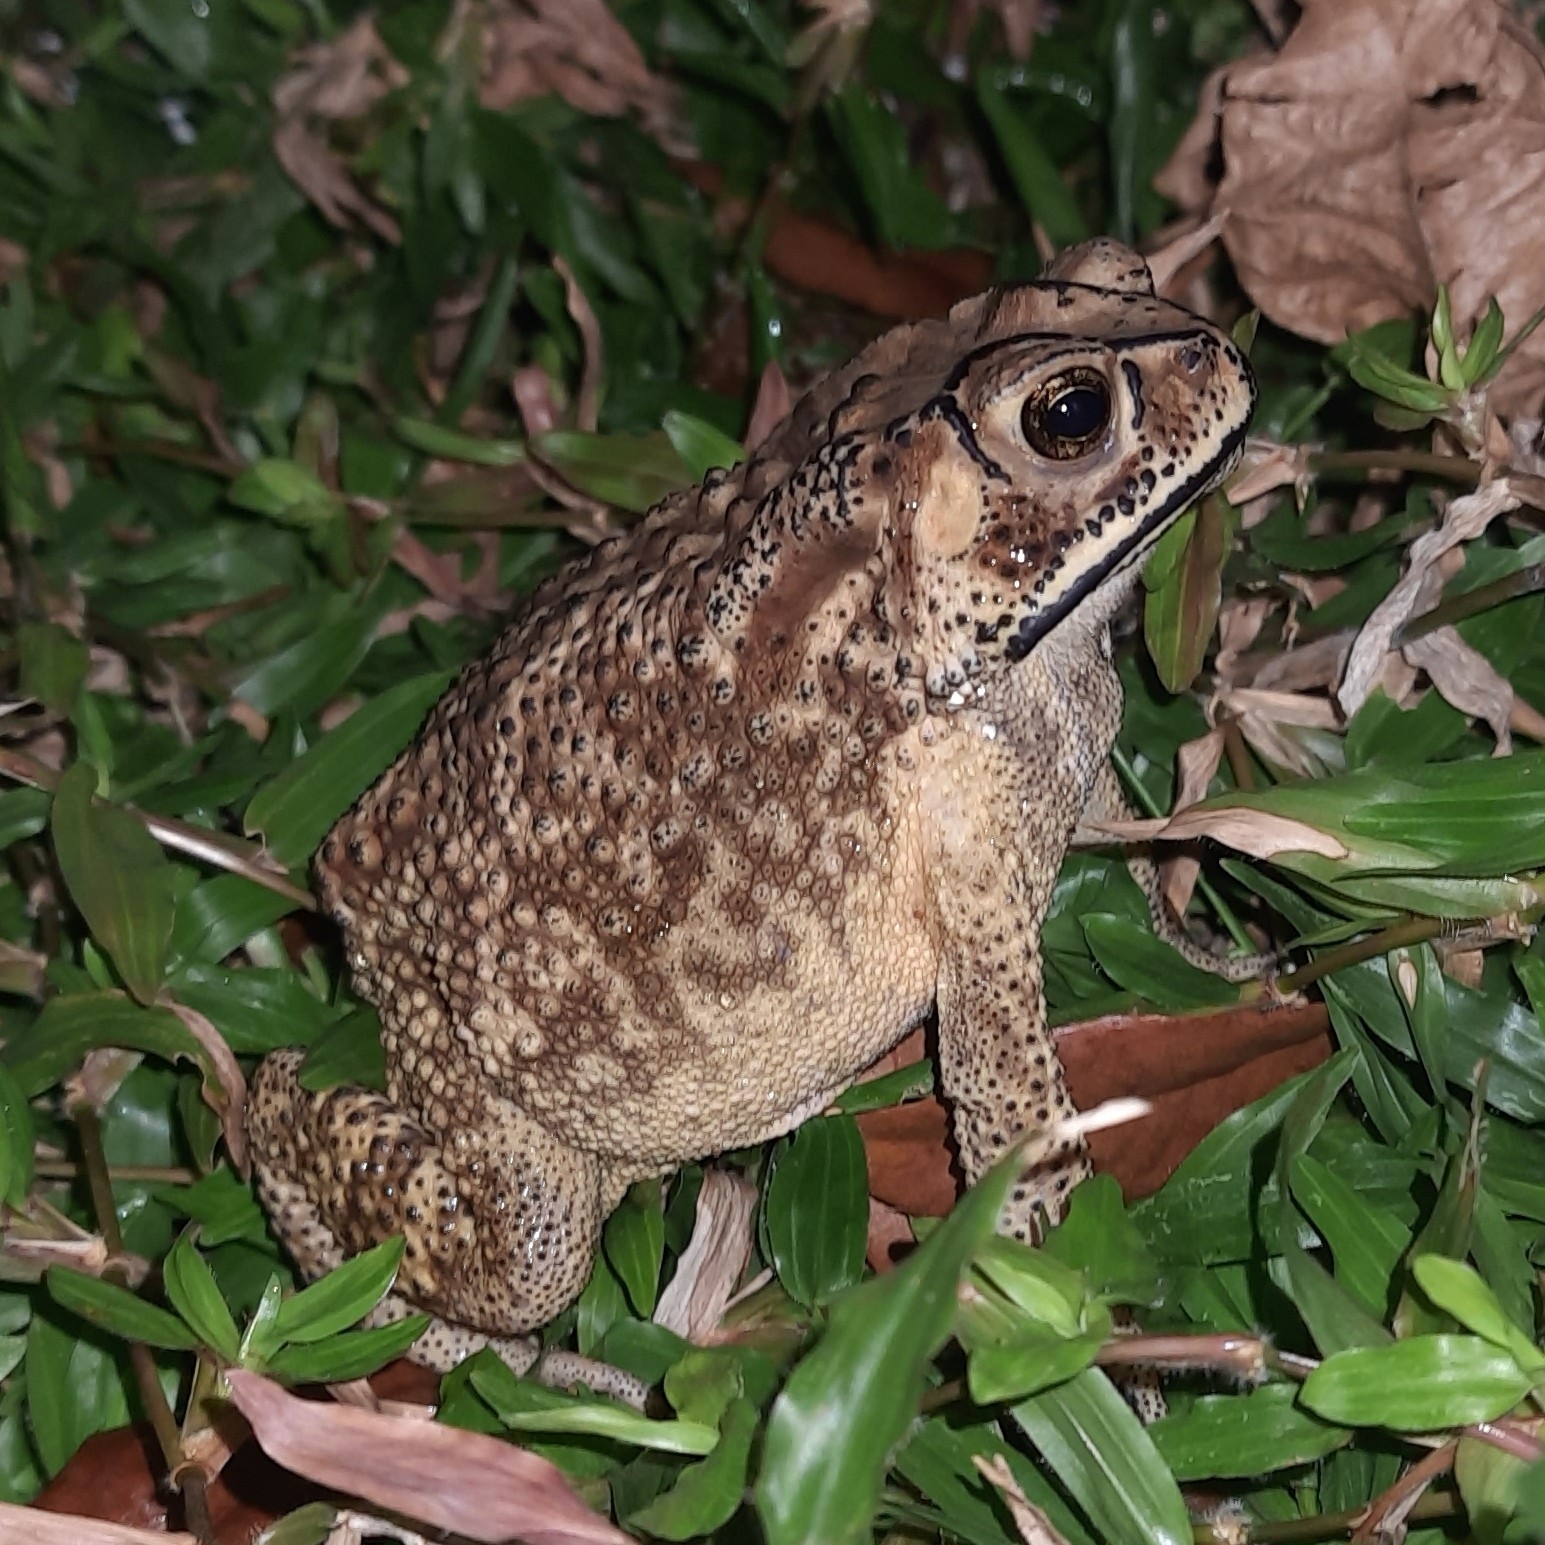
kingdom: Animalia
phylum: Chordata
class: Amphibia
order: Anura
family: Bufonidae
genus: Duttaphrynus
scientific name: Duttaphrynus melanostictus
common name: Common sunda toad
